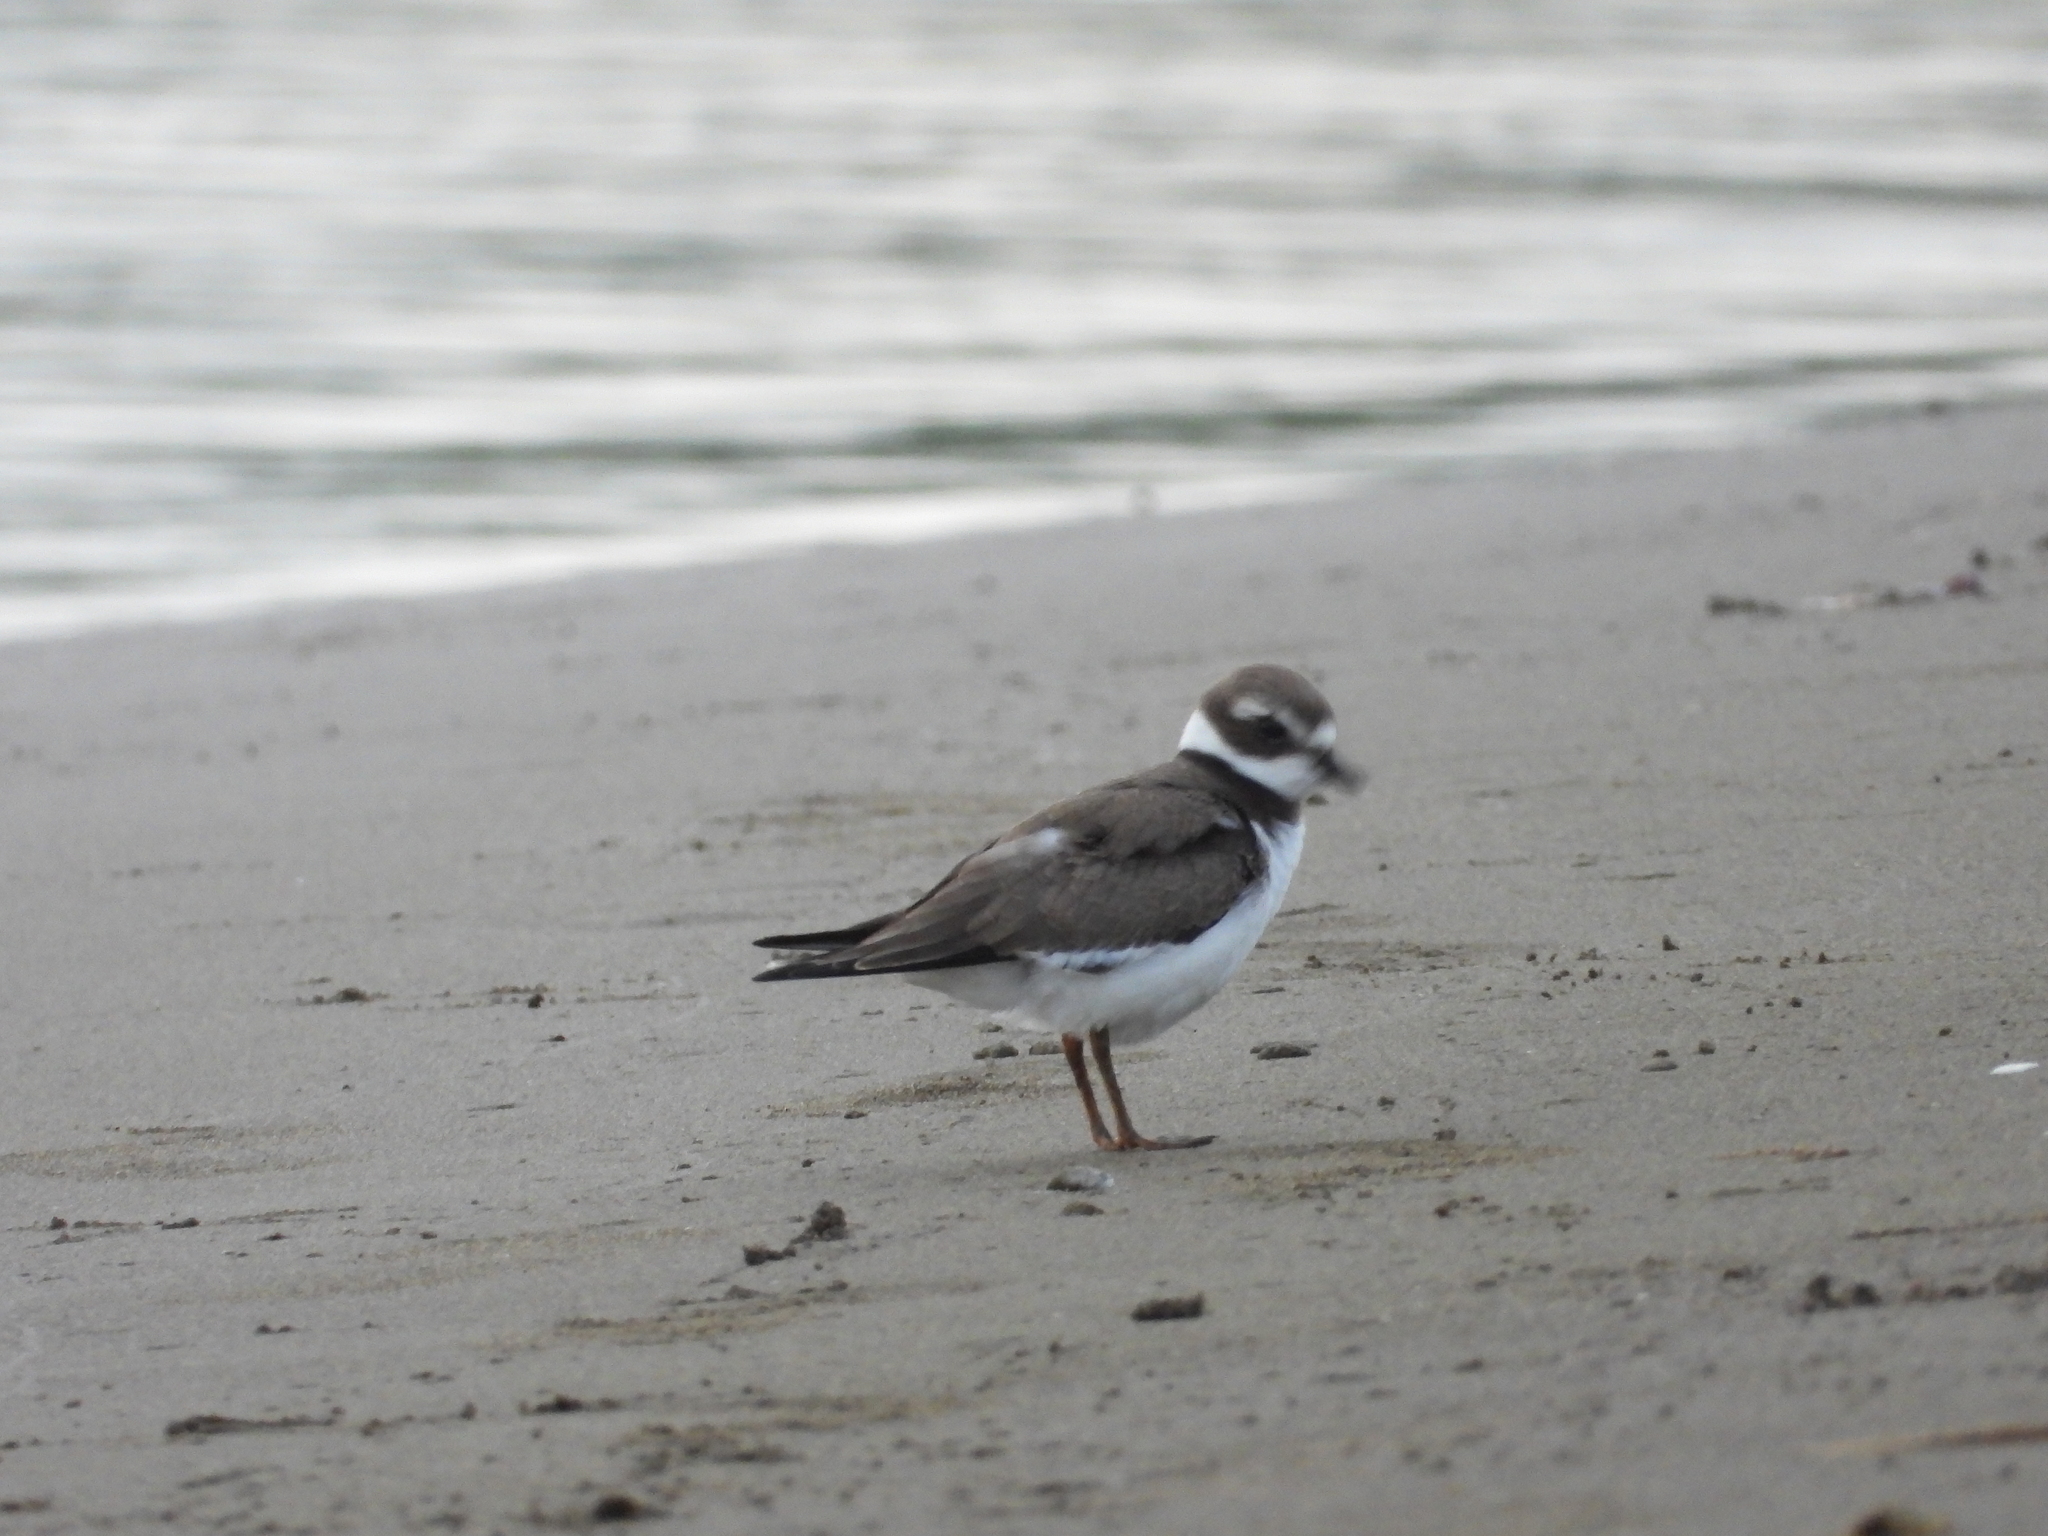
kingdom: Animalia
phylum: Chordata
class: Aves
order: Charadriiformes
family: Charadriidae
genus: Charadrius
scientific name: Charadrius semipalmatus
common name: Semipalmated plover
